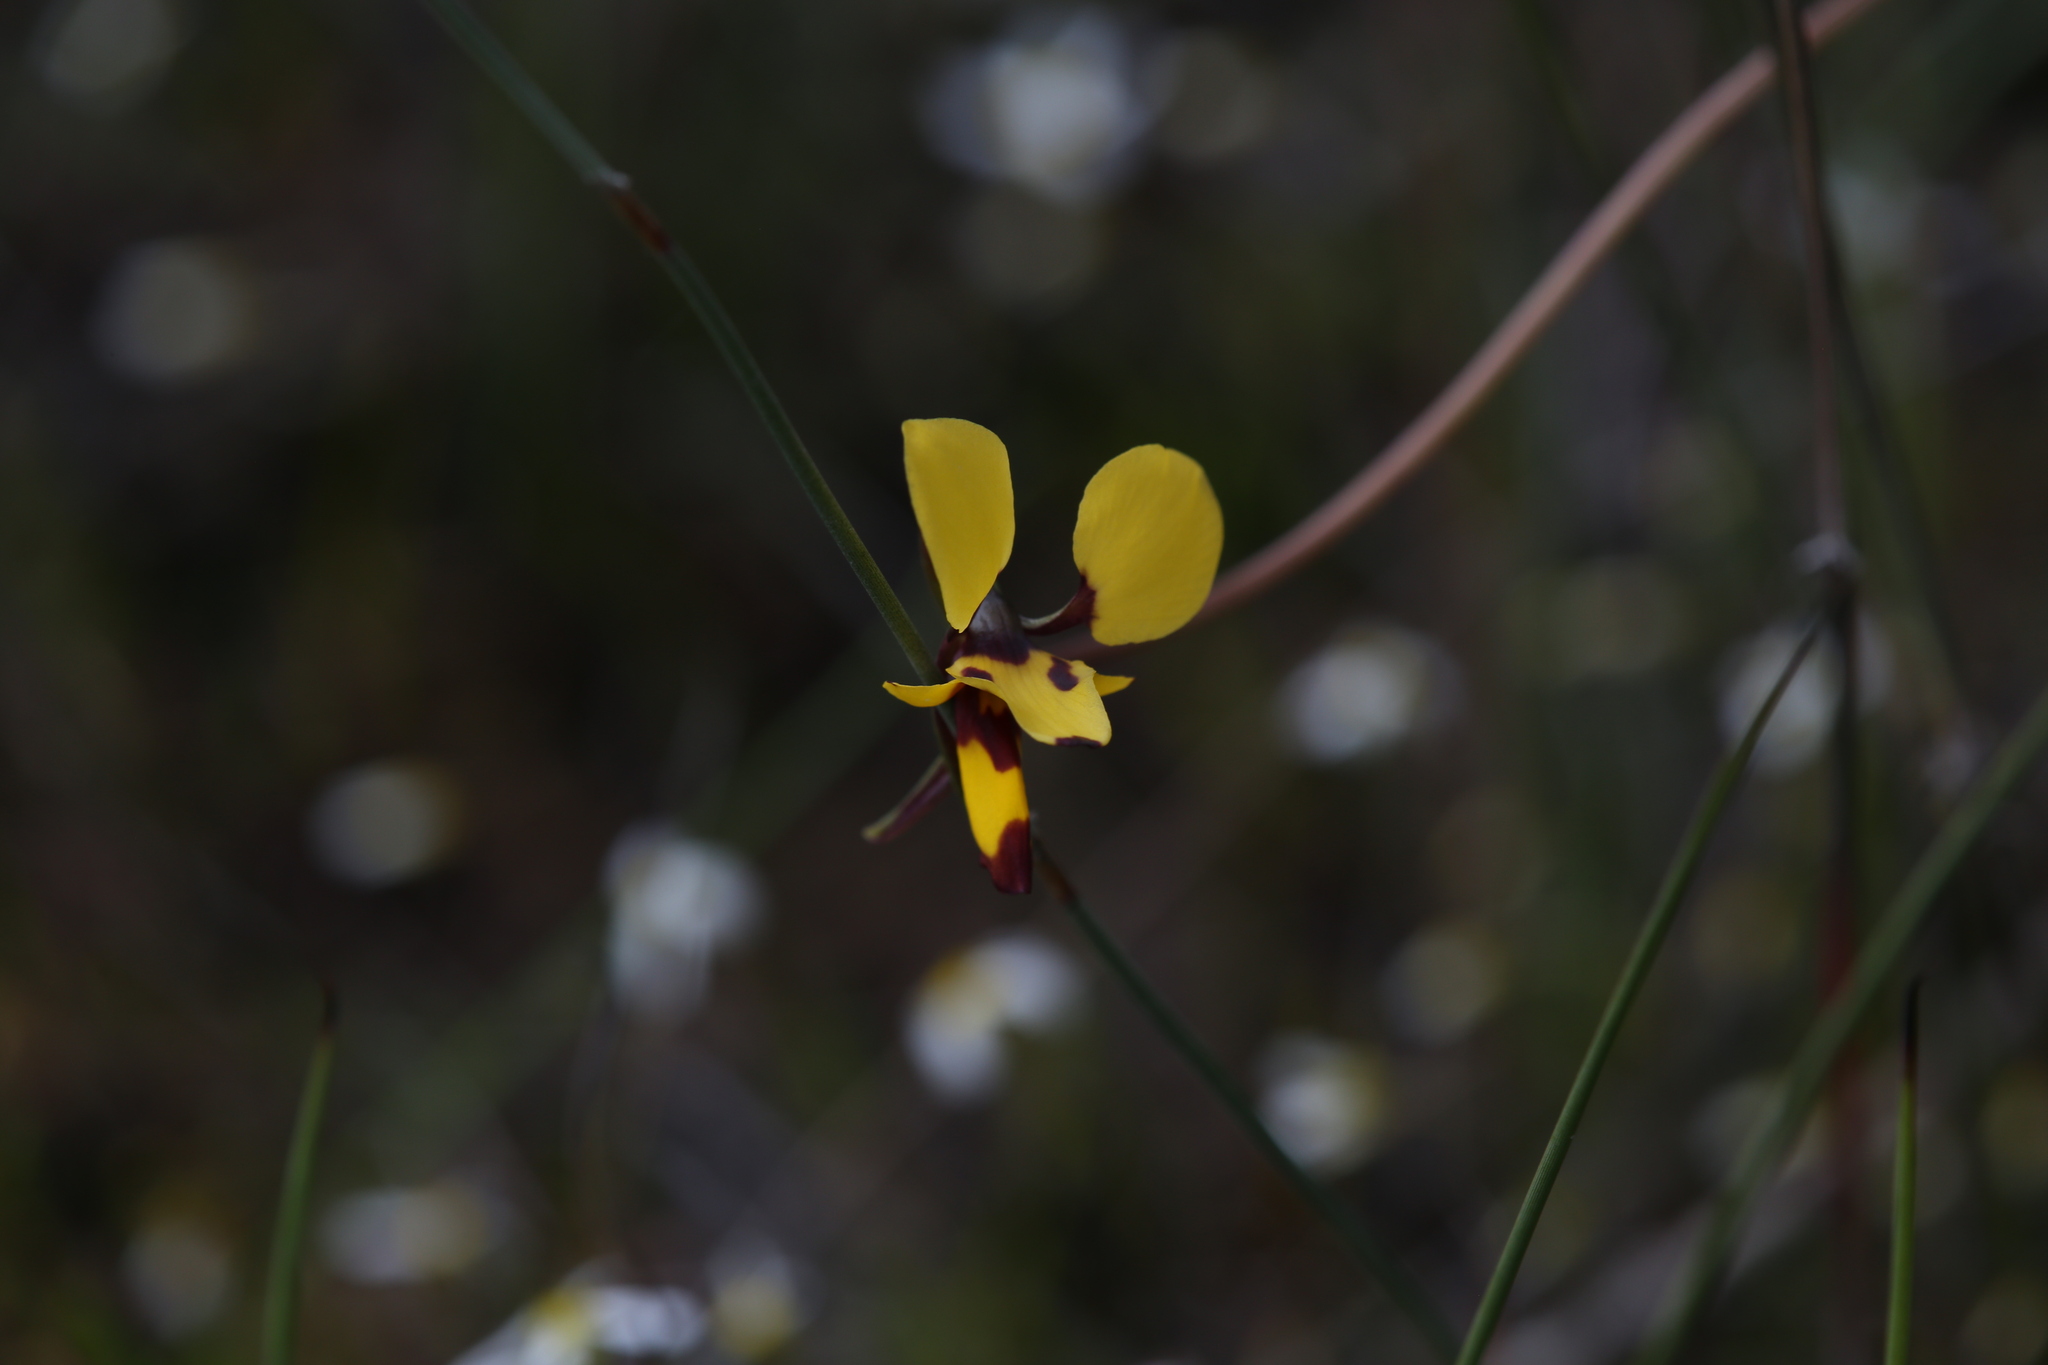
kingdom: Plantae
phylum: Tracheophyta
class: Liliopsida
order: Asparagales
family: Orchidaceae
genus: Diuris
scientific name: Diuris laxiflora
